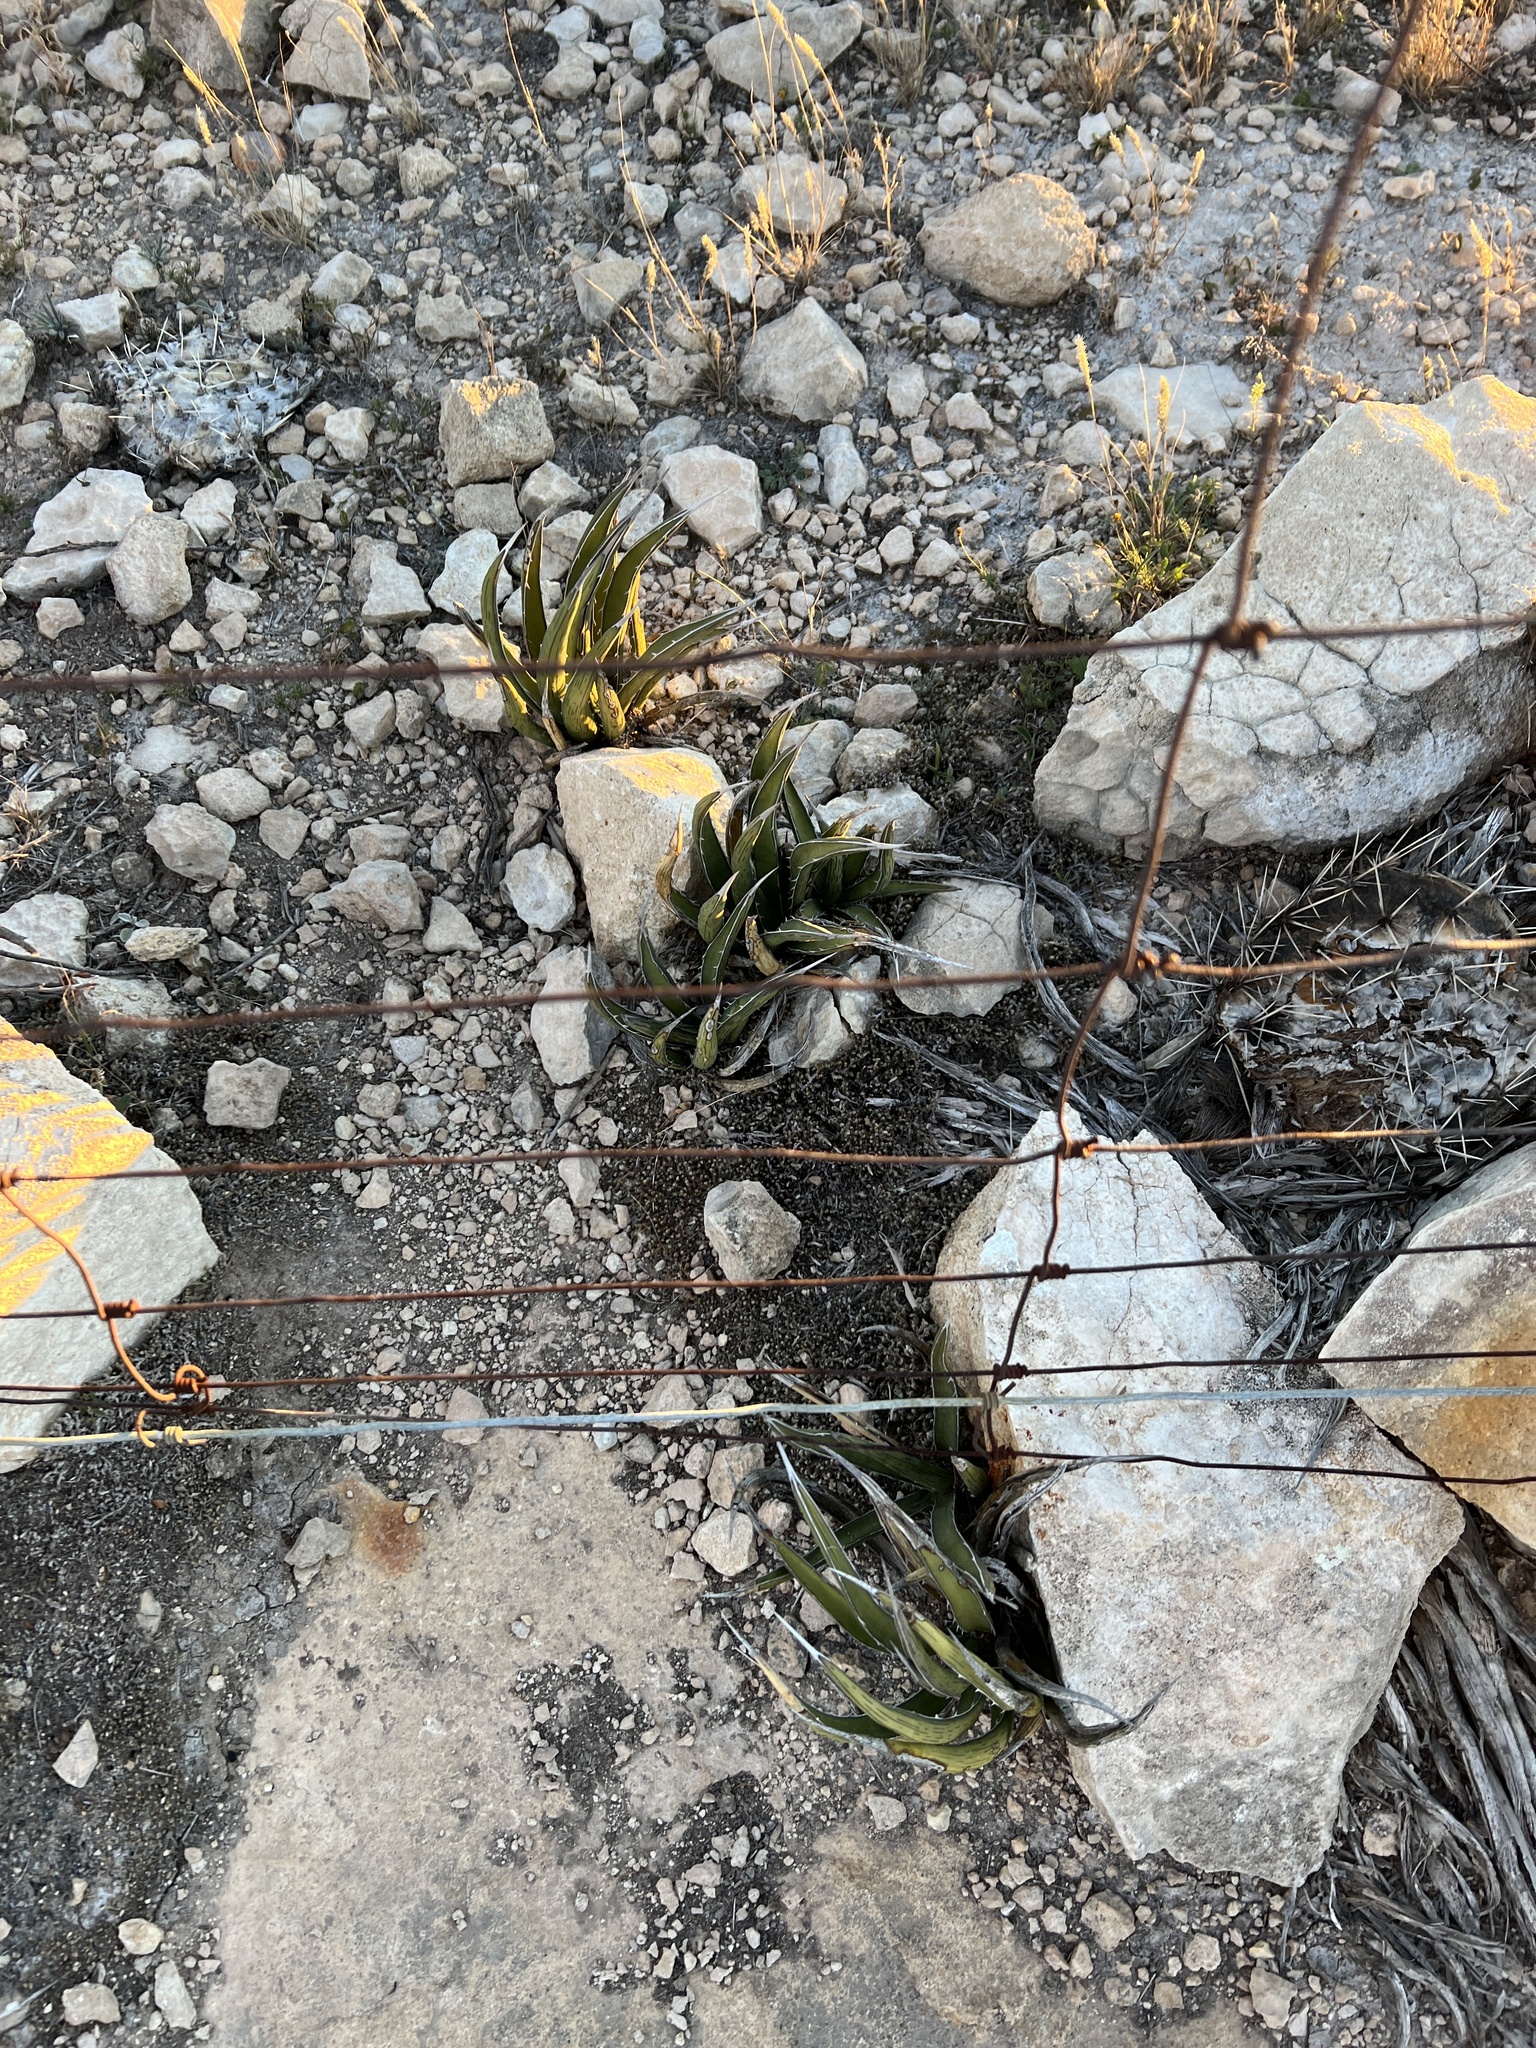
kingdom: Plantae
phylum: Tracheophyta
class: Liliopsida
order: Asparagales
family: Asparagaceae
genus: Agave
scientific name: Agave lechuguilla
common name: Lecheguilla agave
